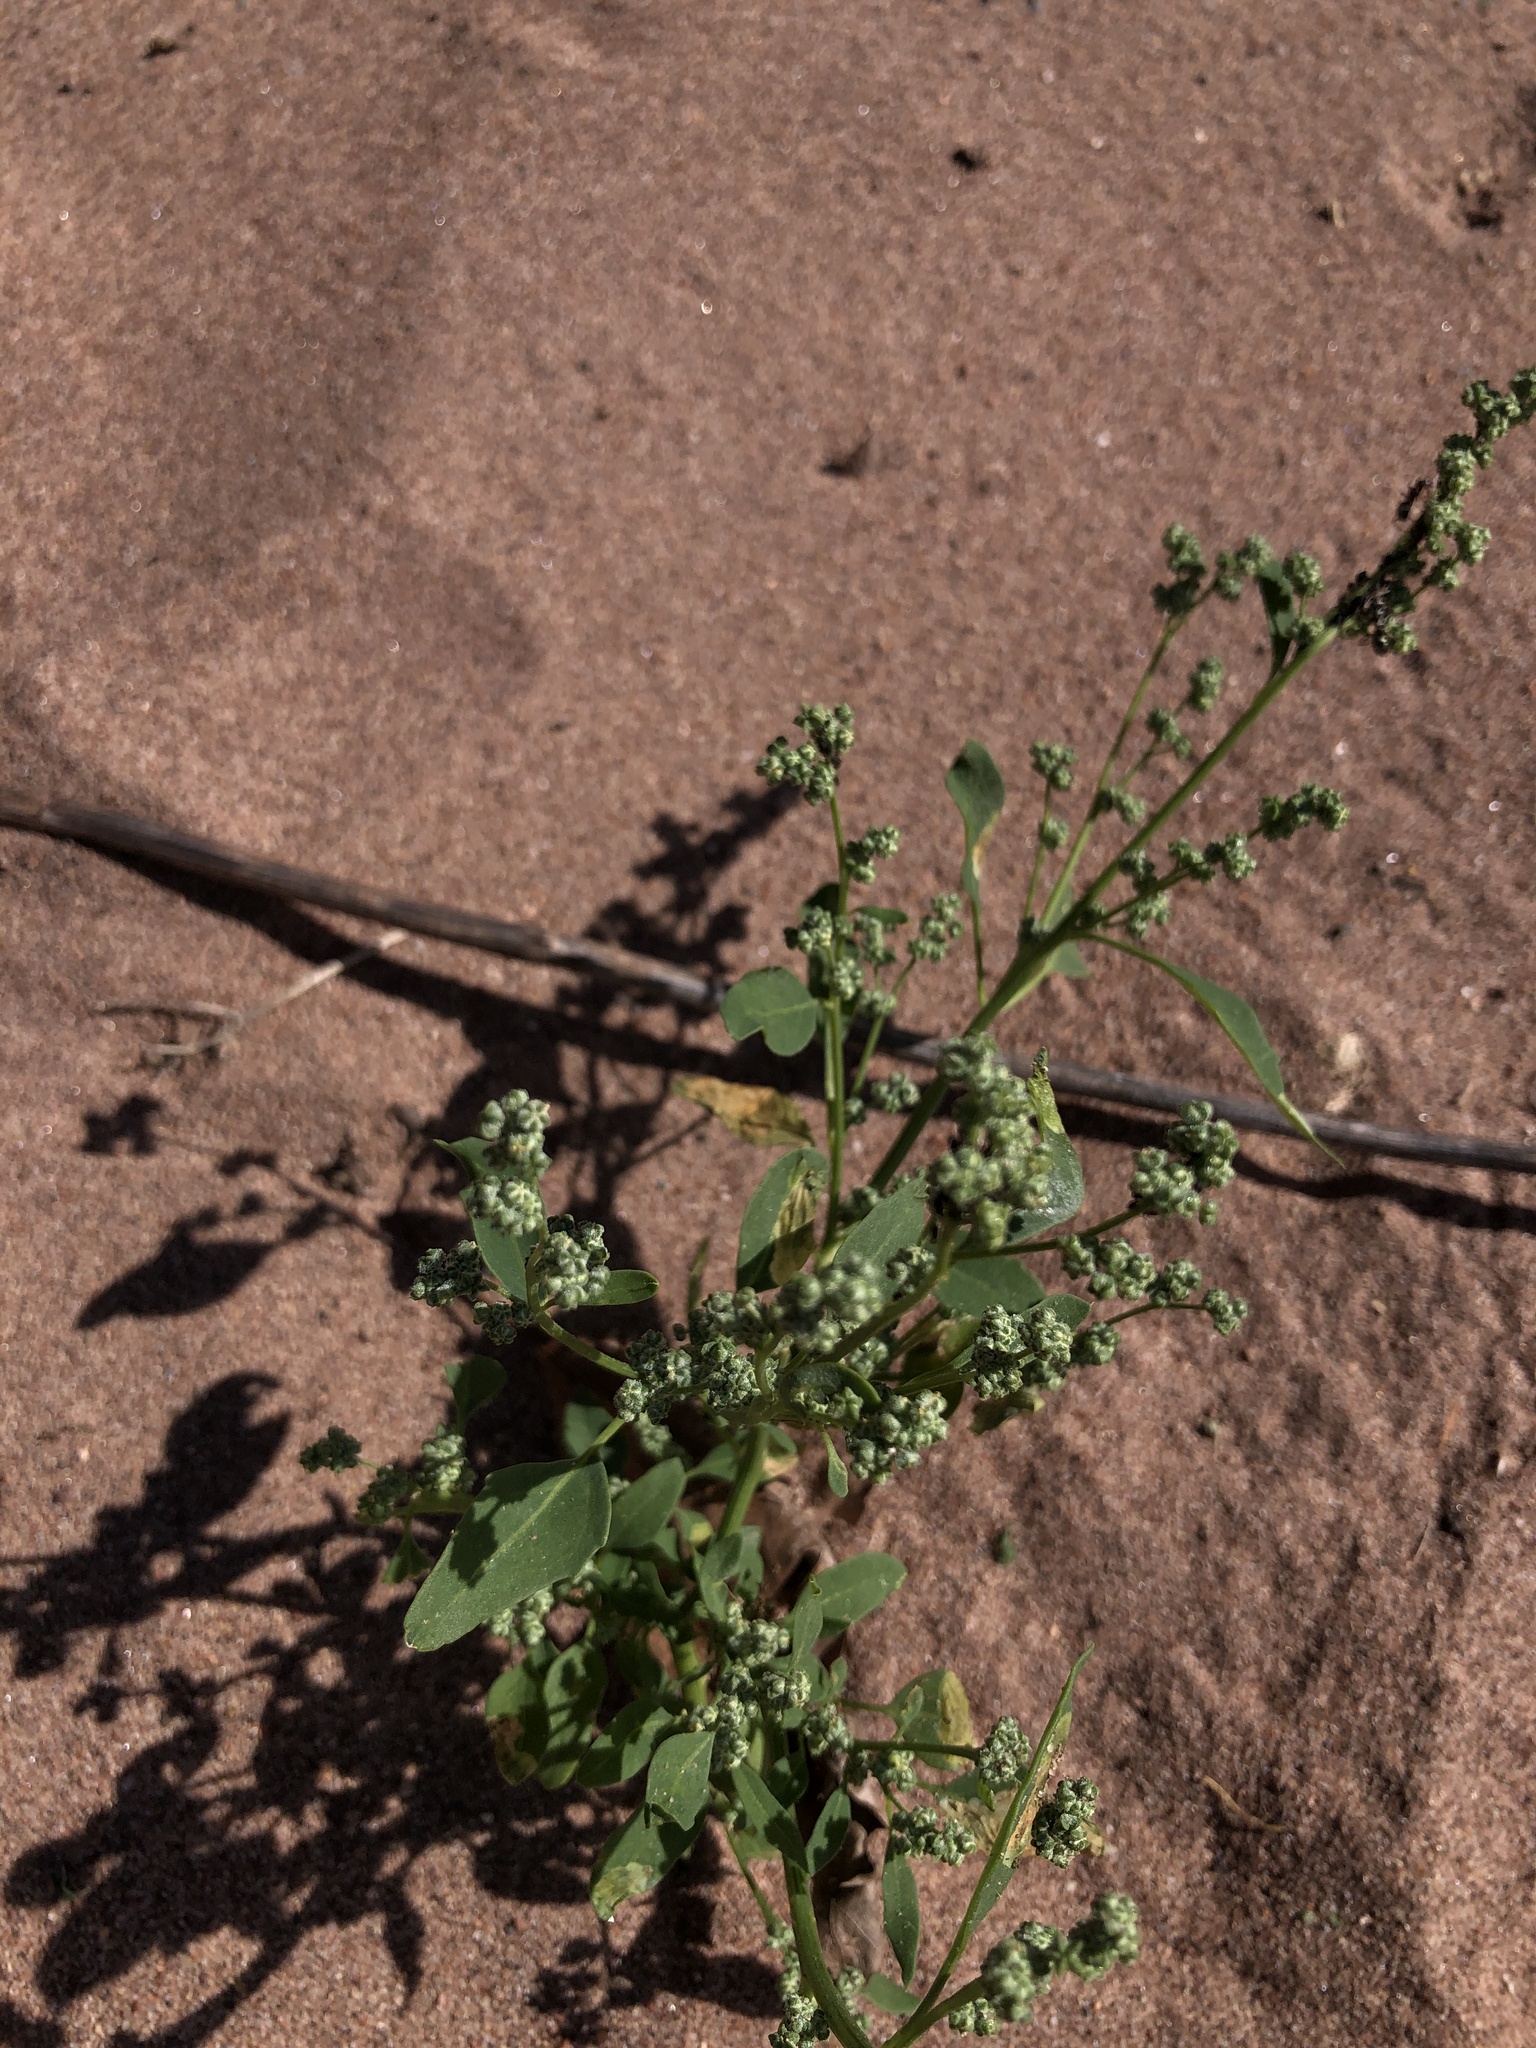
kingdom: Plantae
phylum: Tracheophyta
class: Magnoliopsida
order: Caryophyllales
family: Amaranthaceae
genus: Chenopodium
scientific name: Chenopodium album
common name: Fat-hen
